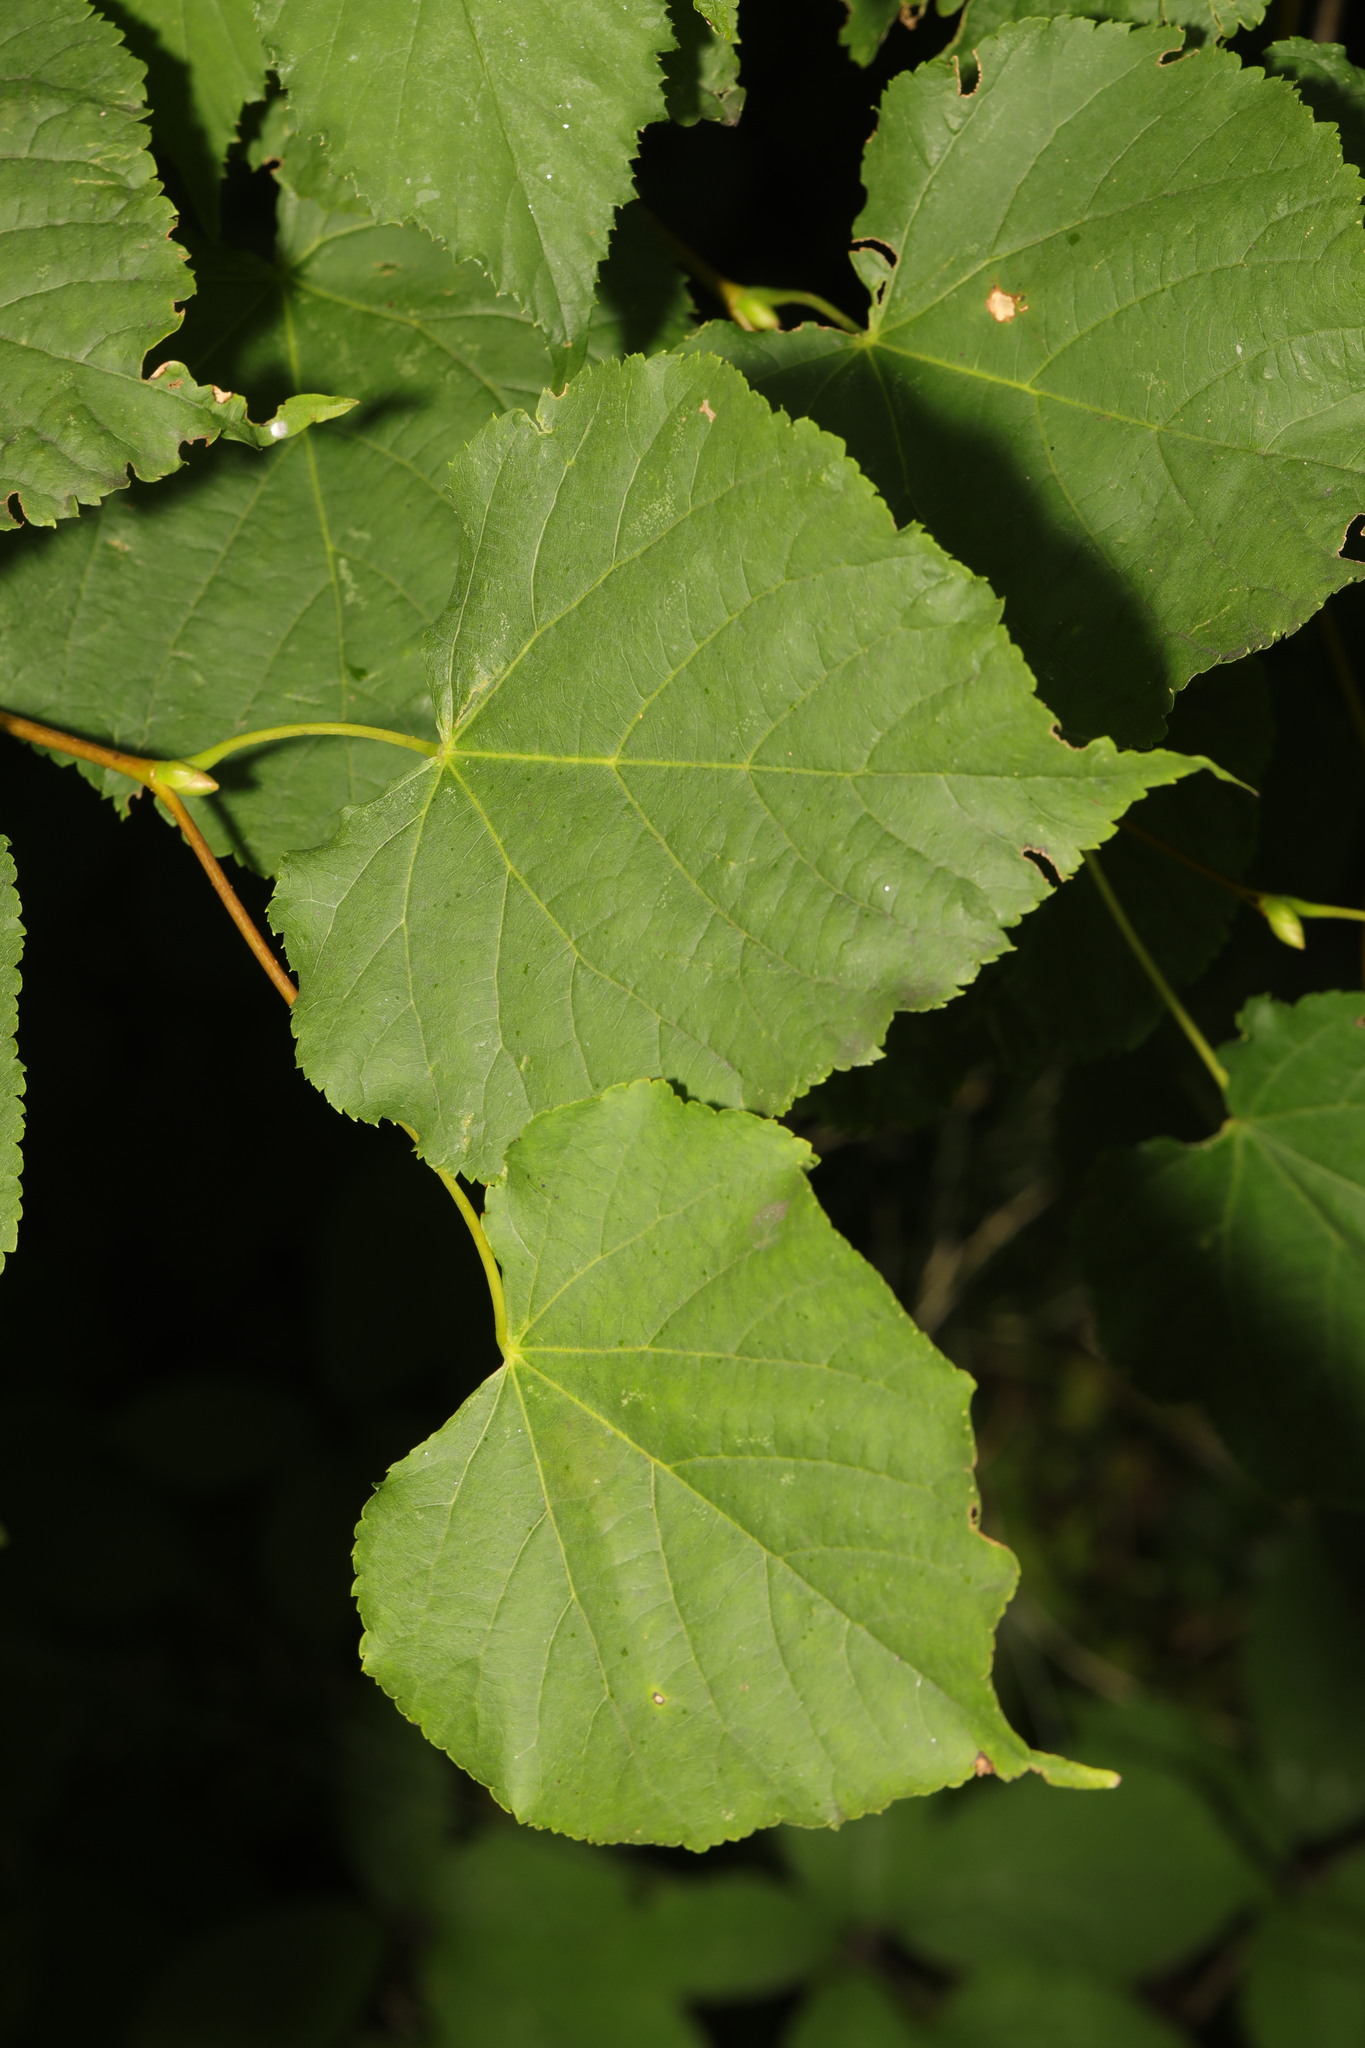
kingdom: Plantae
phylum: Tracheophyta
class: Magnoliopsida
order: Malvales
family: Malvaceae
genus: Tilia
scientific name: Tilia europaea
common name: European linden
